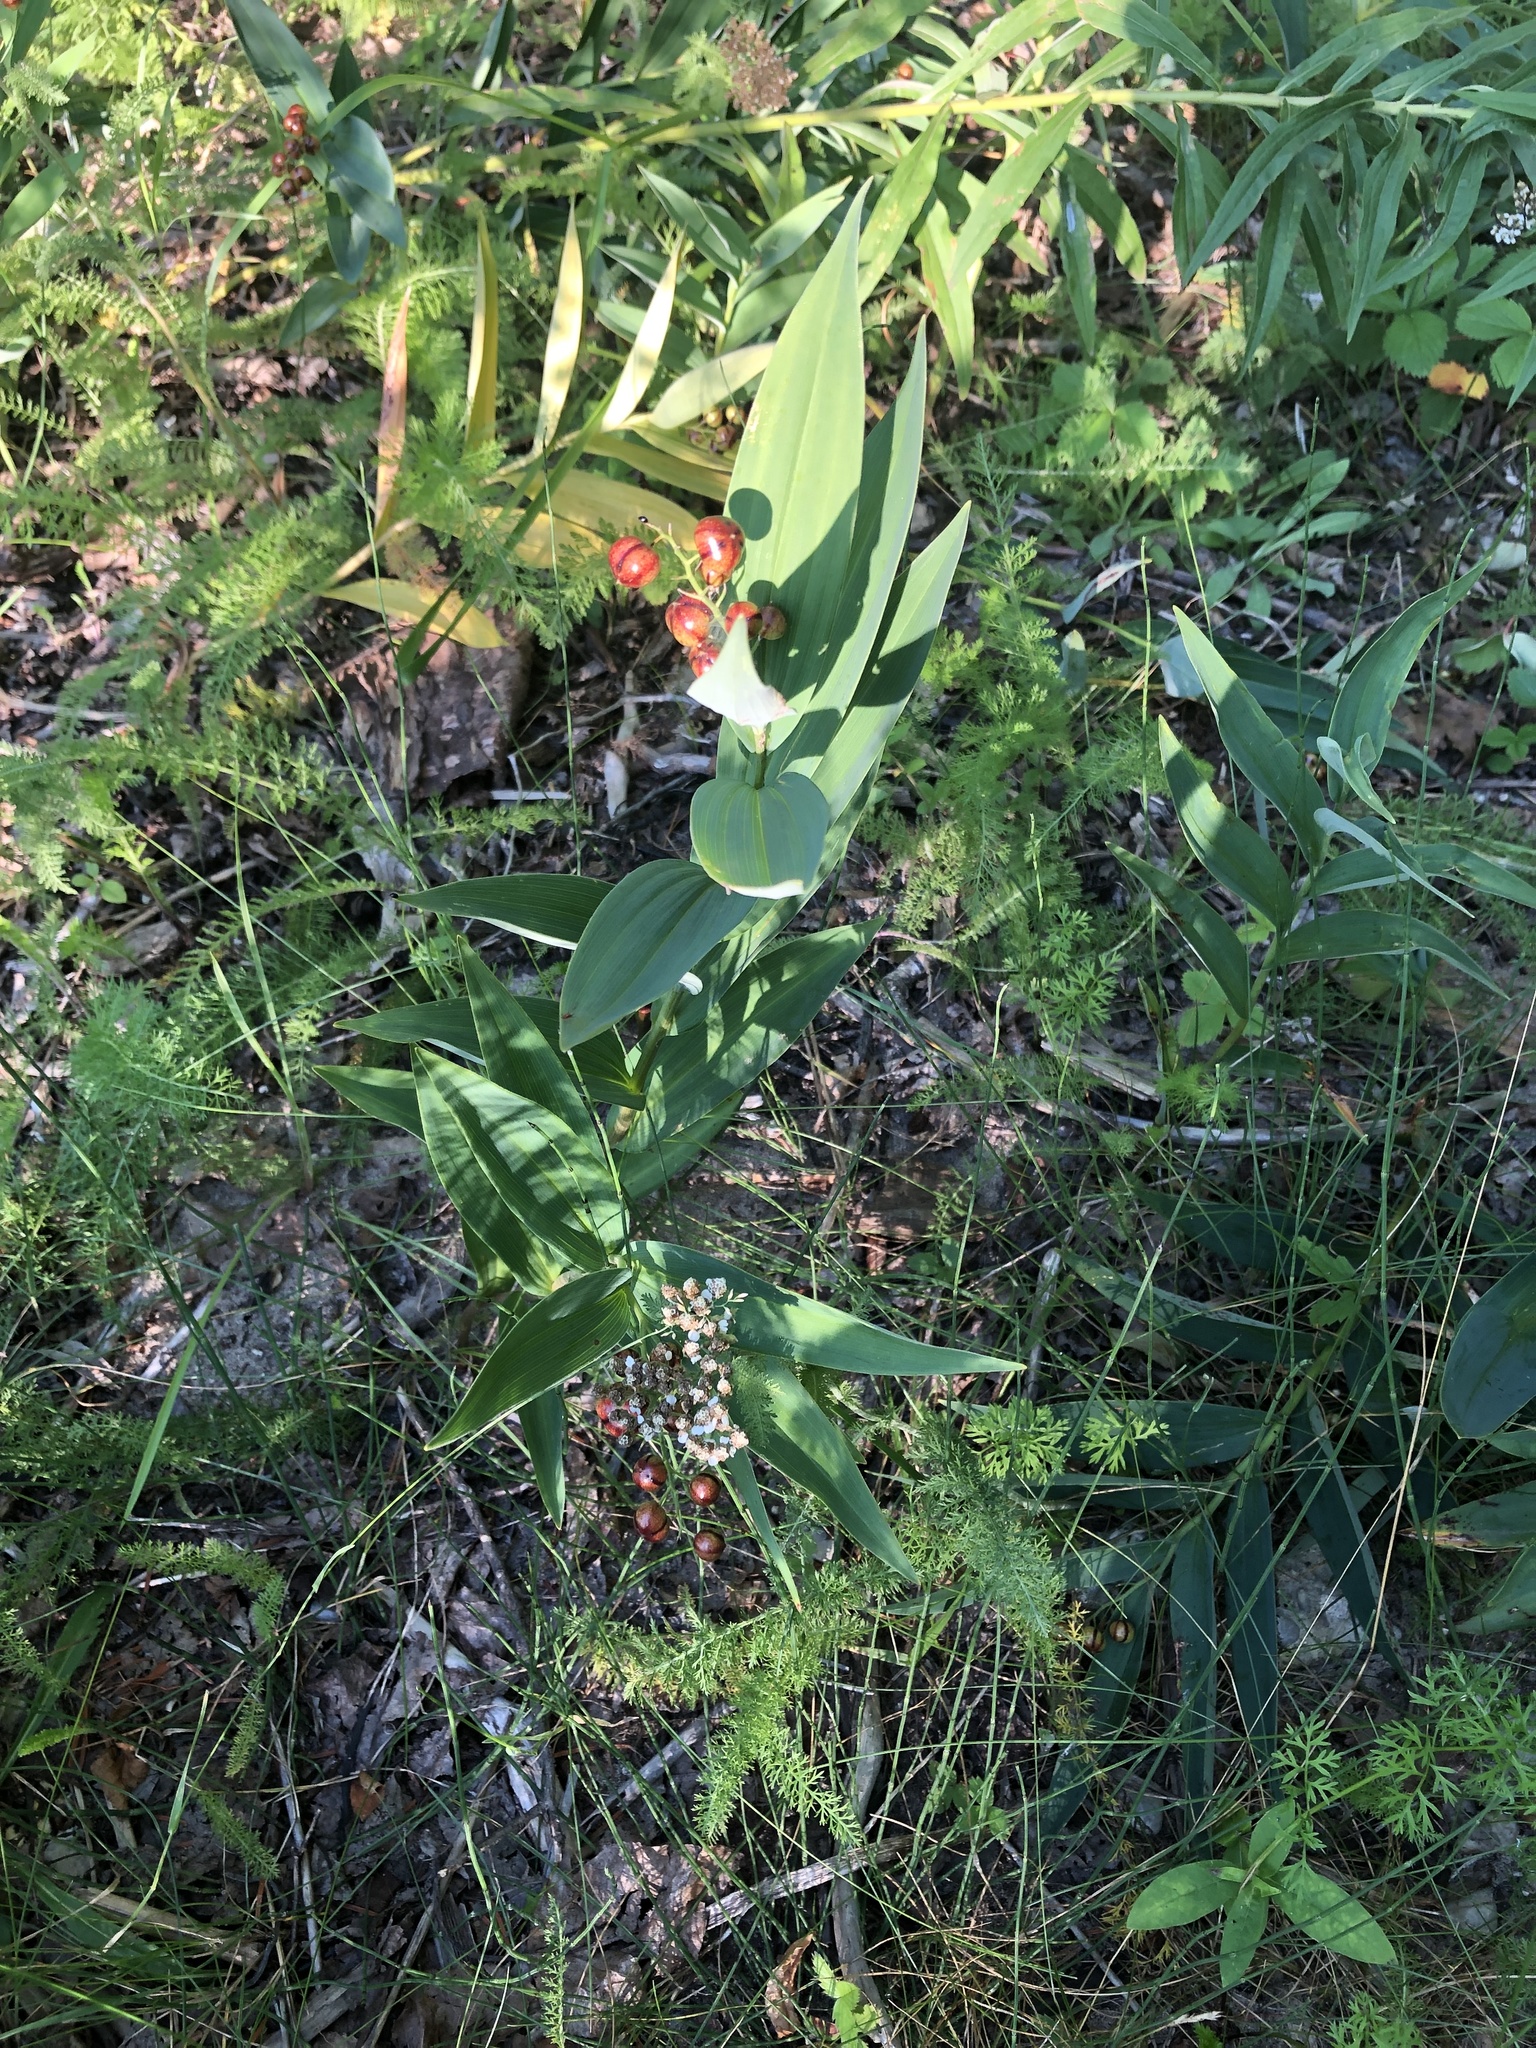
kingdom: Plantae
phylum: Tracheophyta
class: Liliopsida
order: Asparagales
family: Asparagaceae
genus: Maianthemum
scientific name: Maianthemum stellatum
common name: Little false solomon's seal
